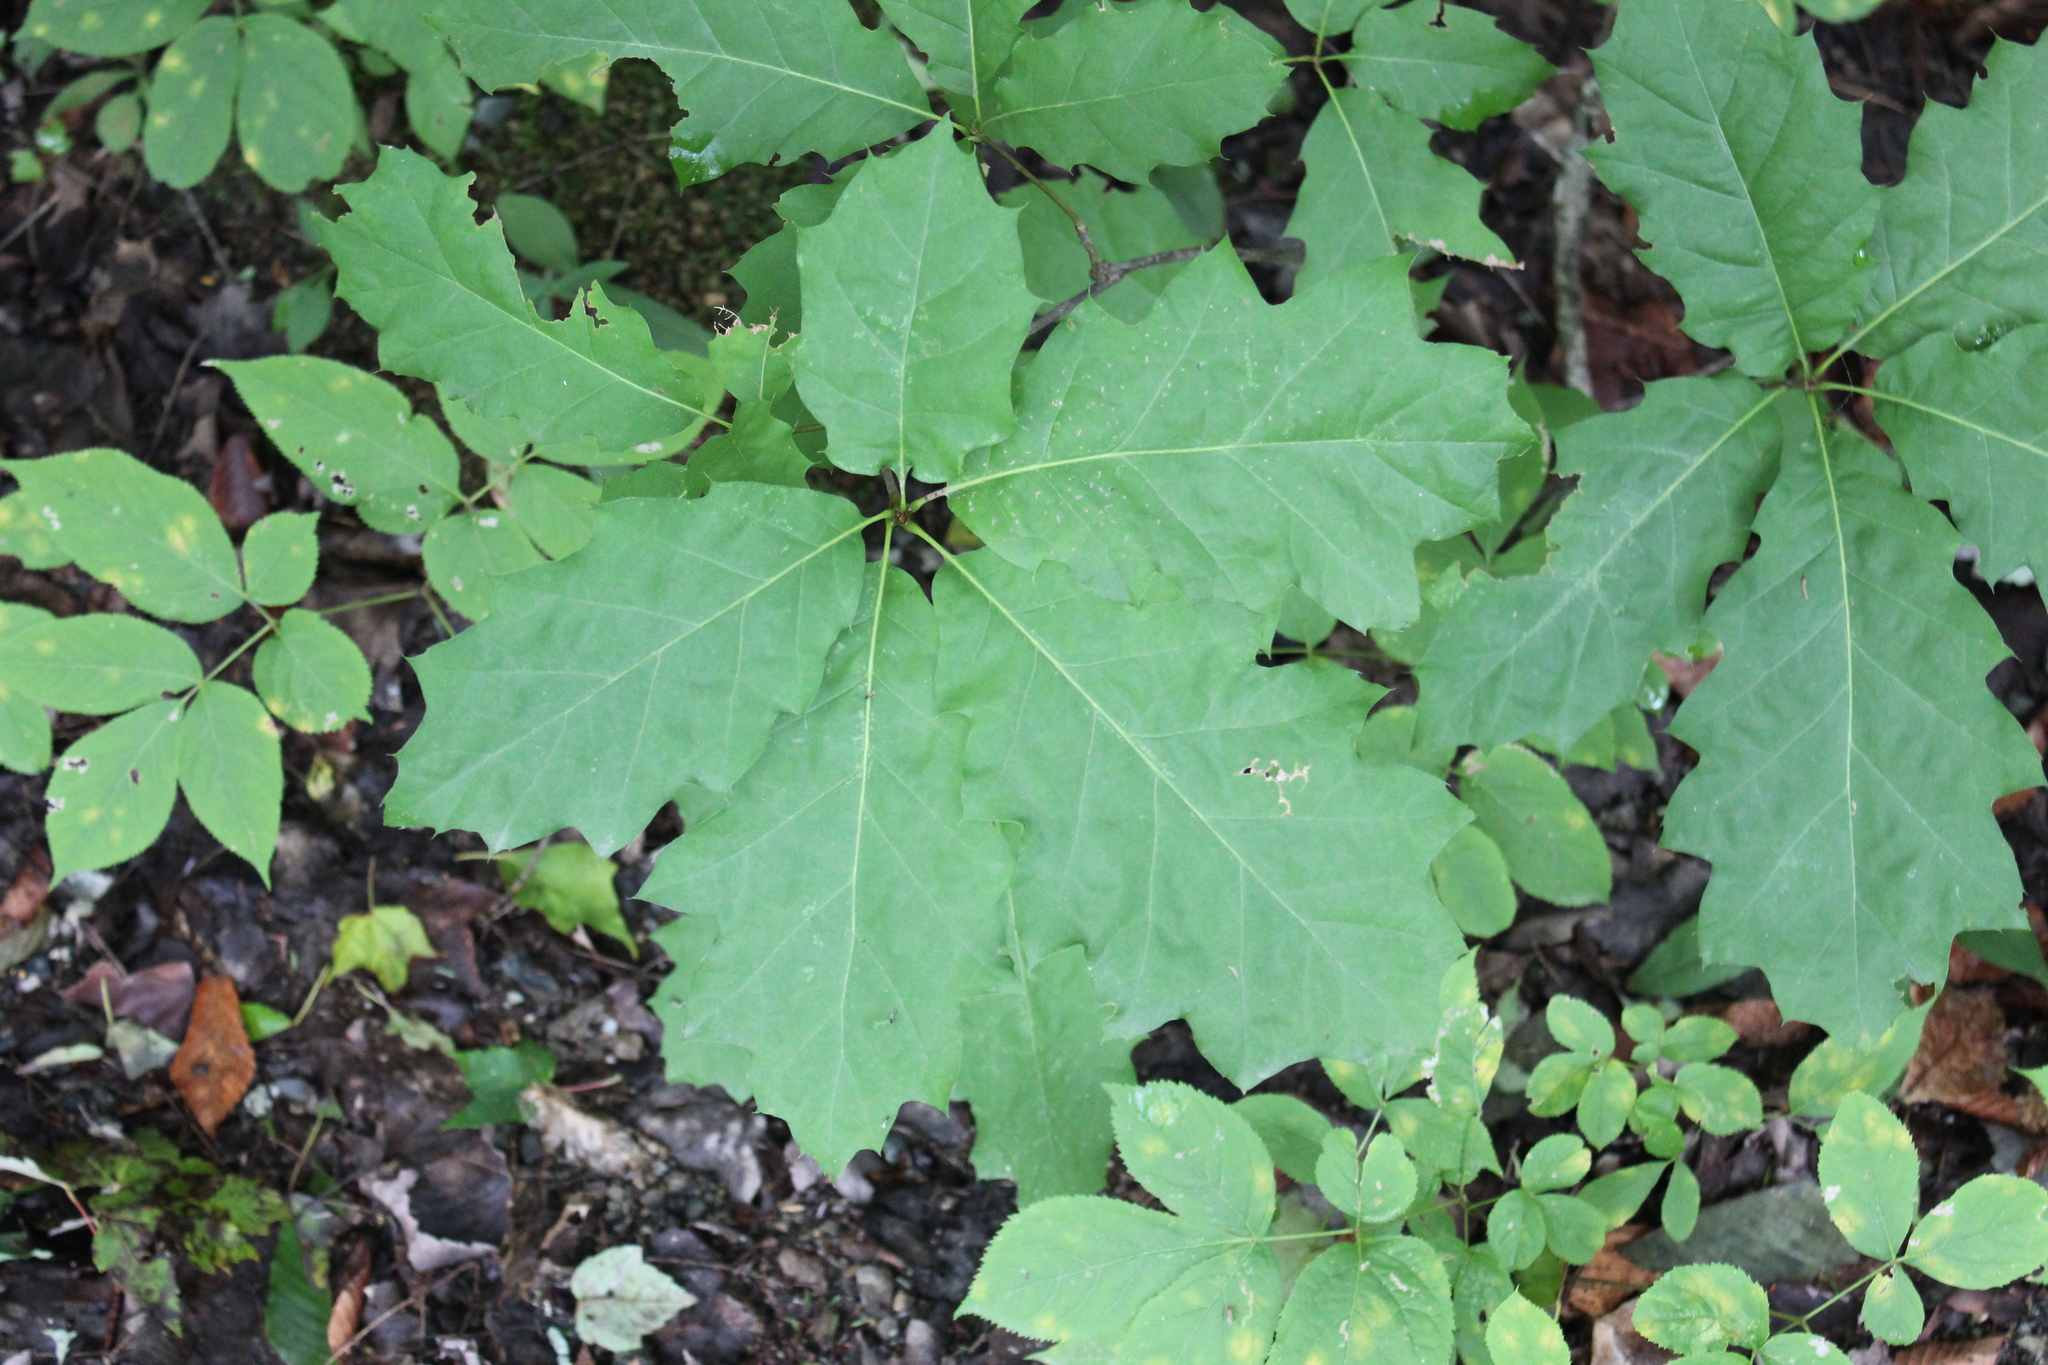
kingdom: Plantae
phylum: Tracheophyta
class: Magnoliopsida
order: Fagales
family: Fagaceae
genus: Quercus
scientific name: Quercus rubra
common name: Red oak
